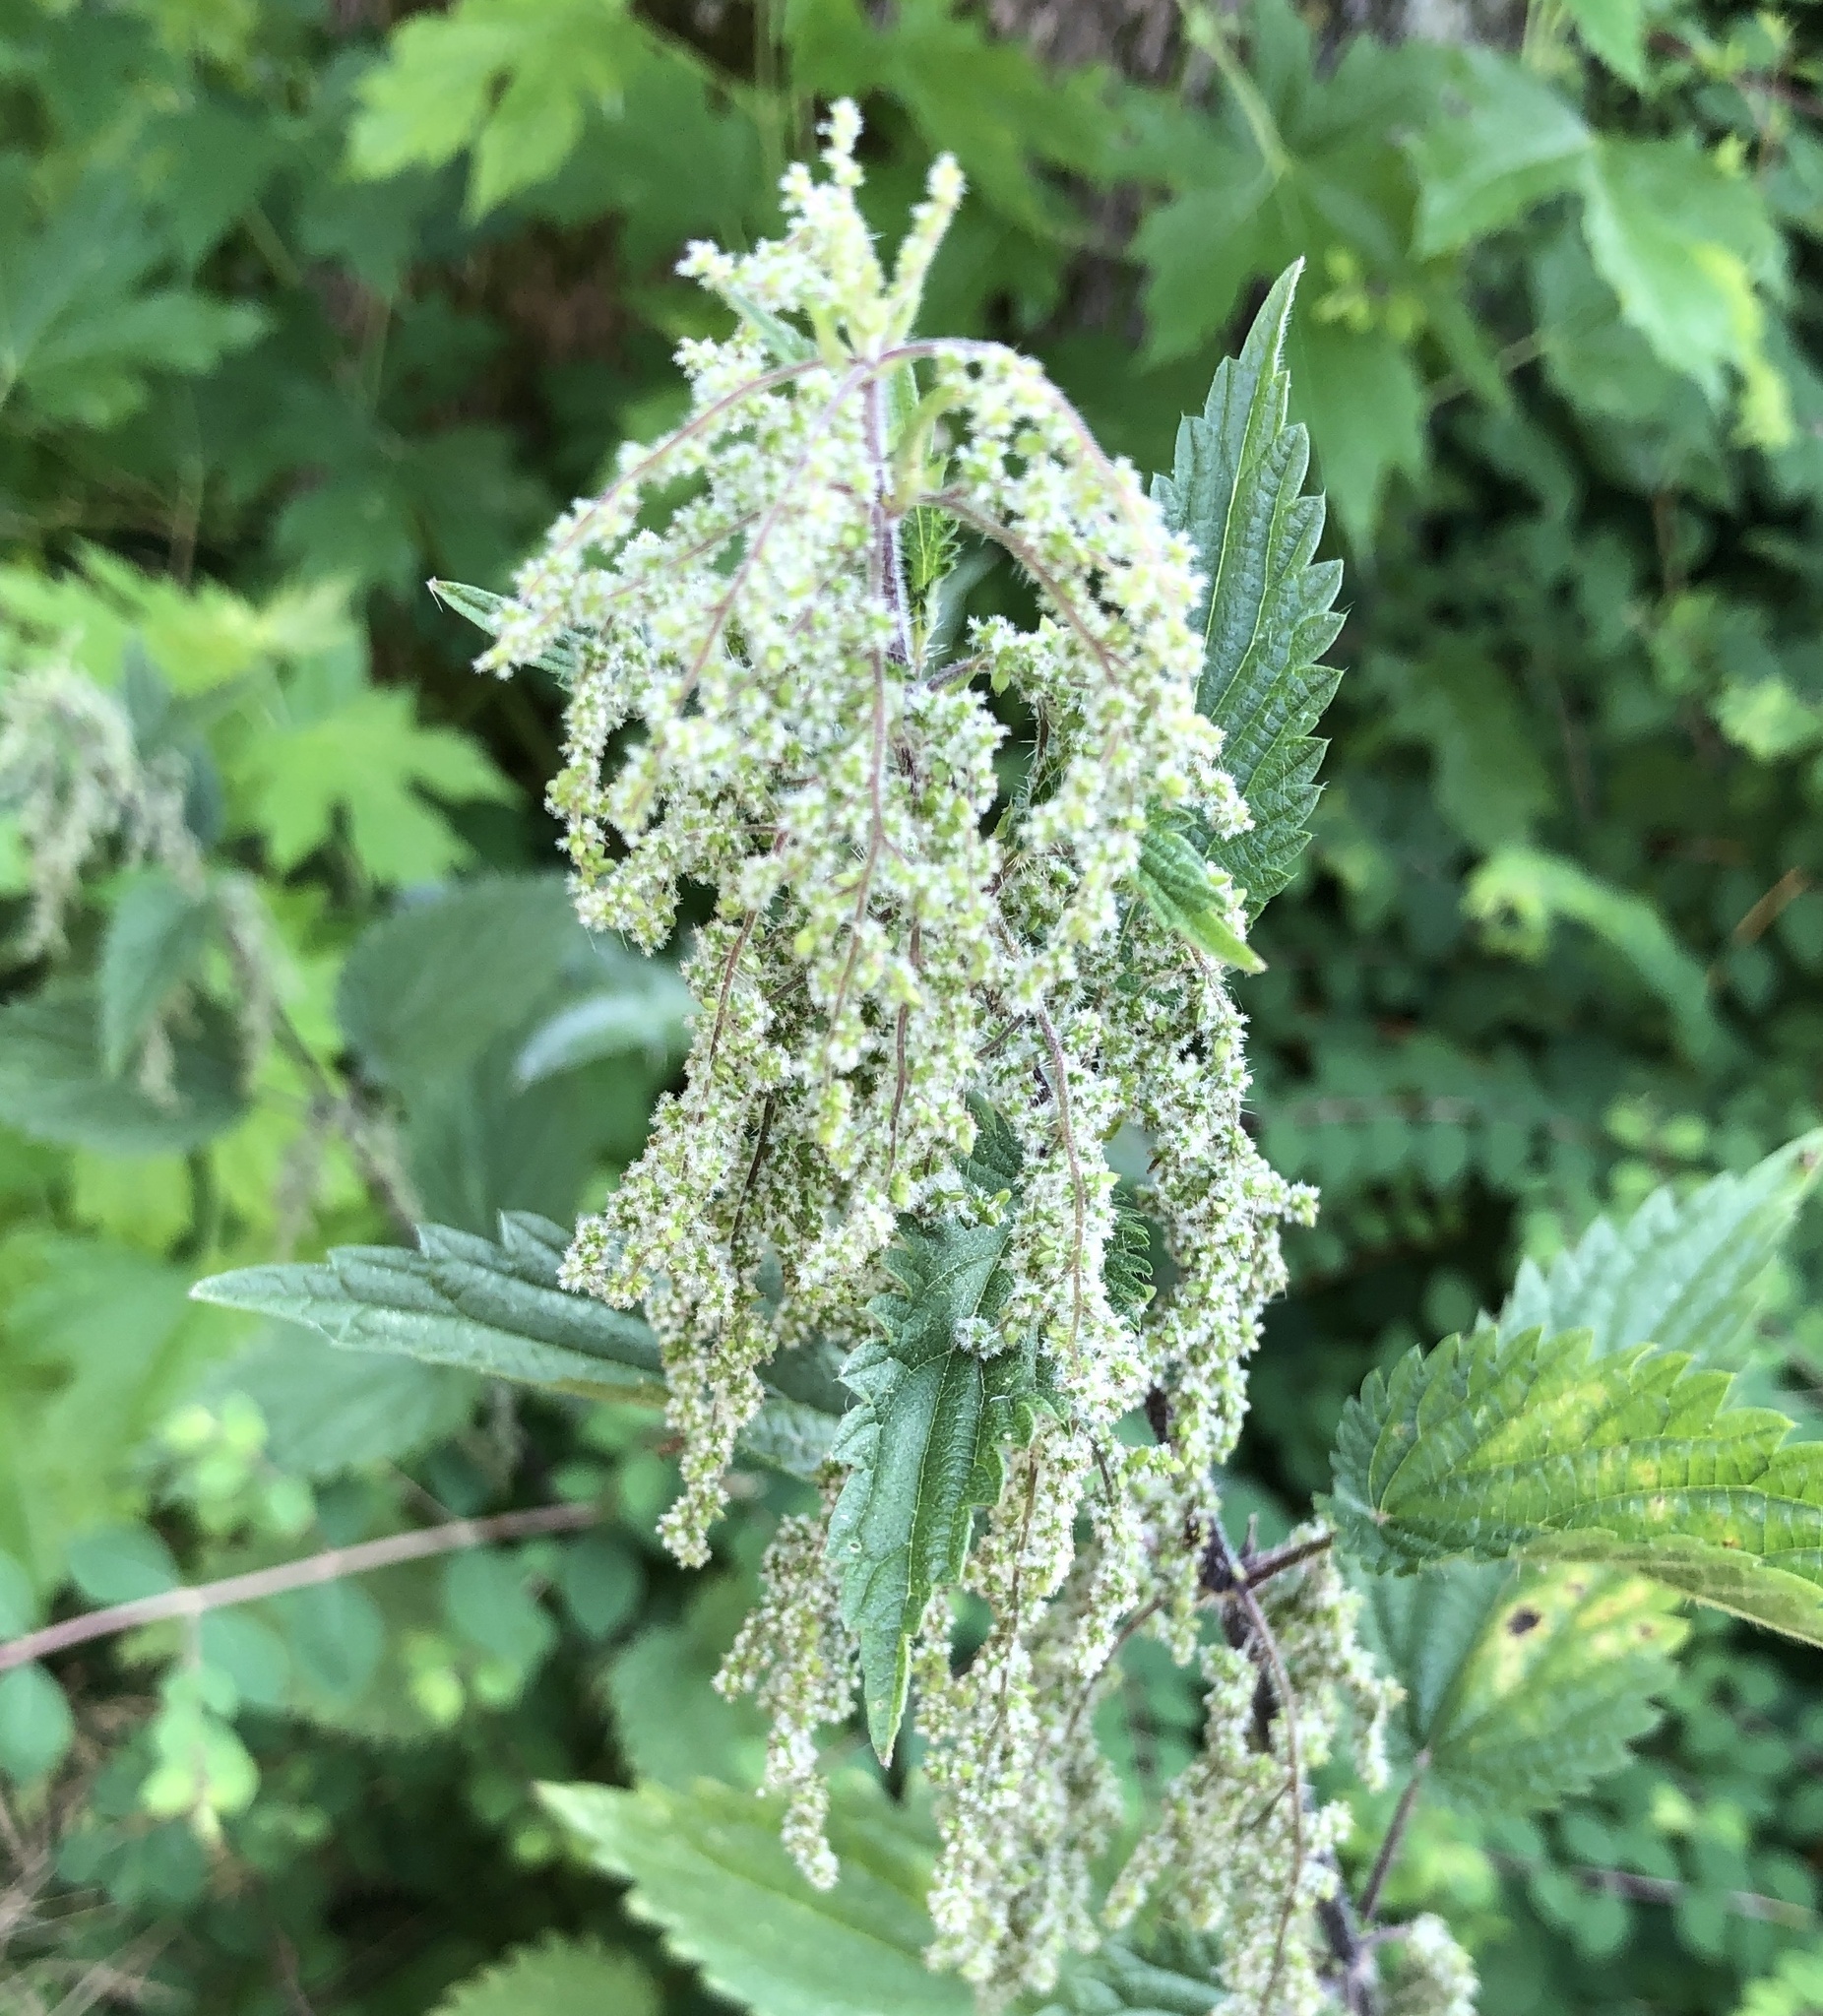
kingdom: Plantae
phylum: Tracheophyta
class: Magnoliopsida
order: Rosales
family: Urticaceae
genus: Urtica
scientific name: Urtica dioica
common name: Common nettle
